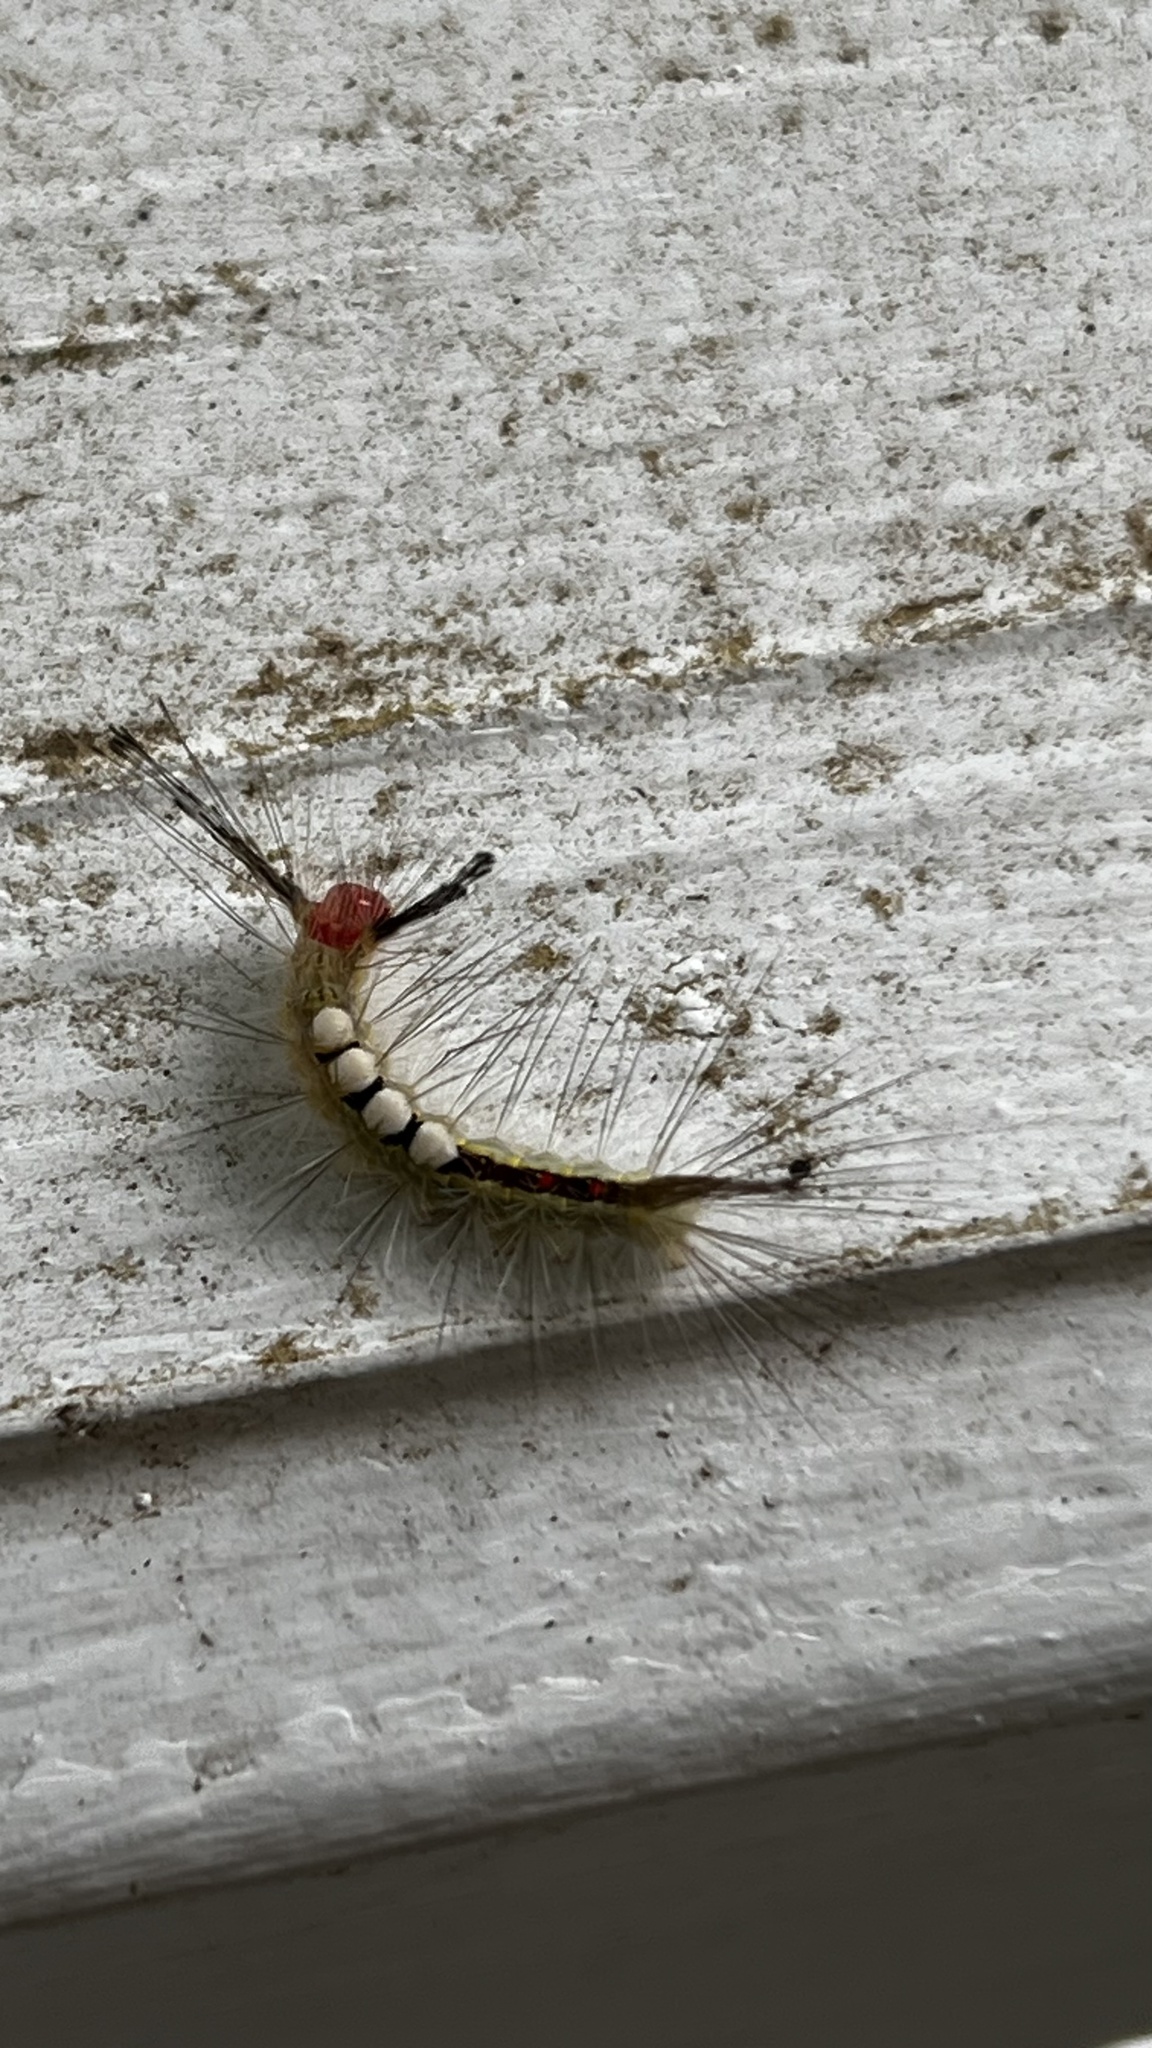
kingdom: Animalia
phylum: Arthropoda
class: Insecta
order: Lepidoptera
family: Erebidae
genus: Orgyia
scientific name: Orgyia leucostigma
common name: White-marked tussock moth
